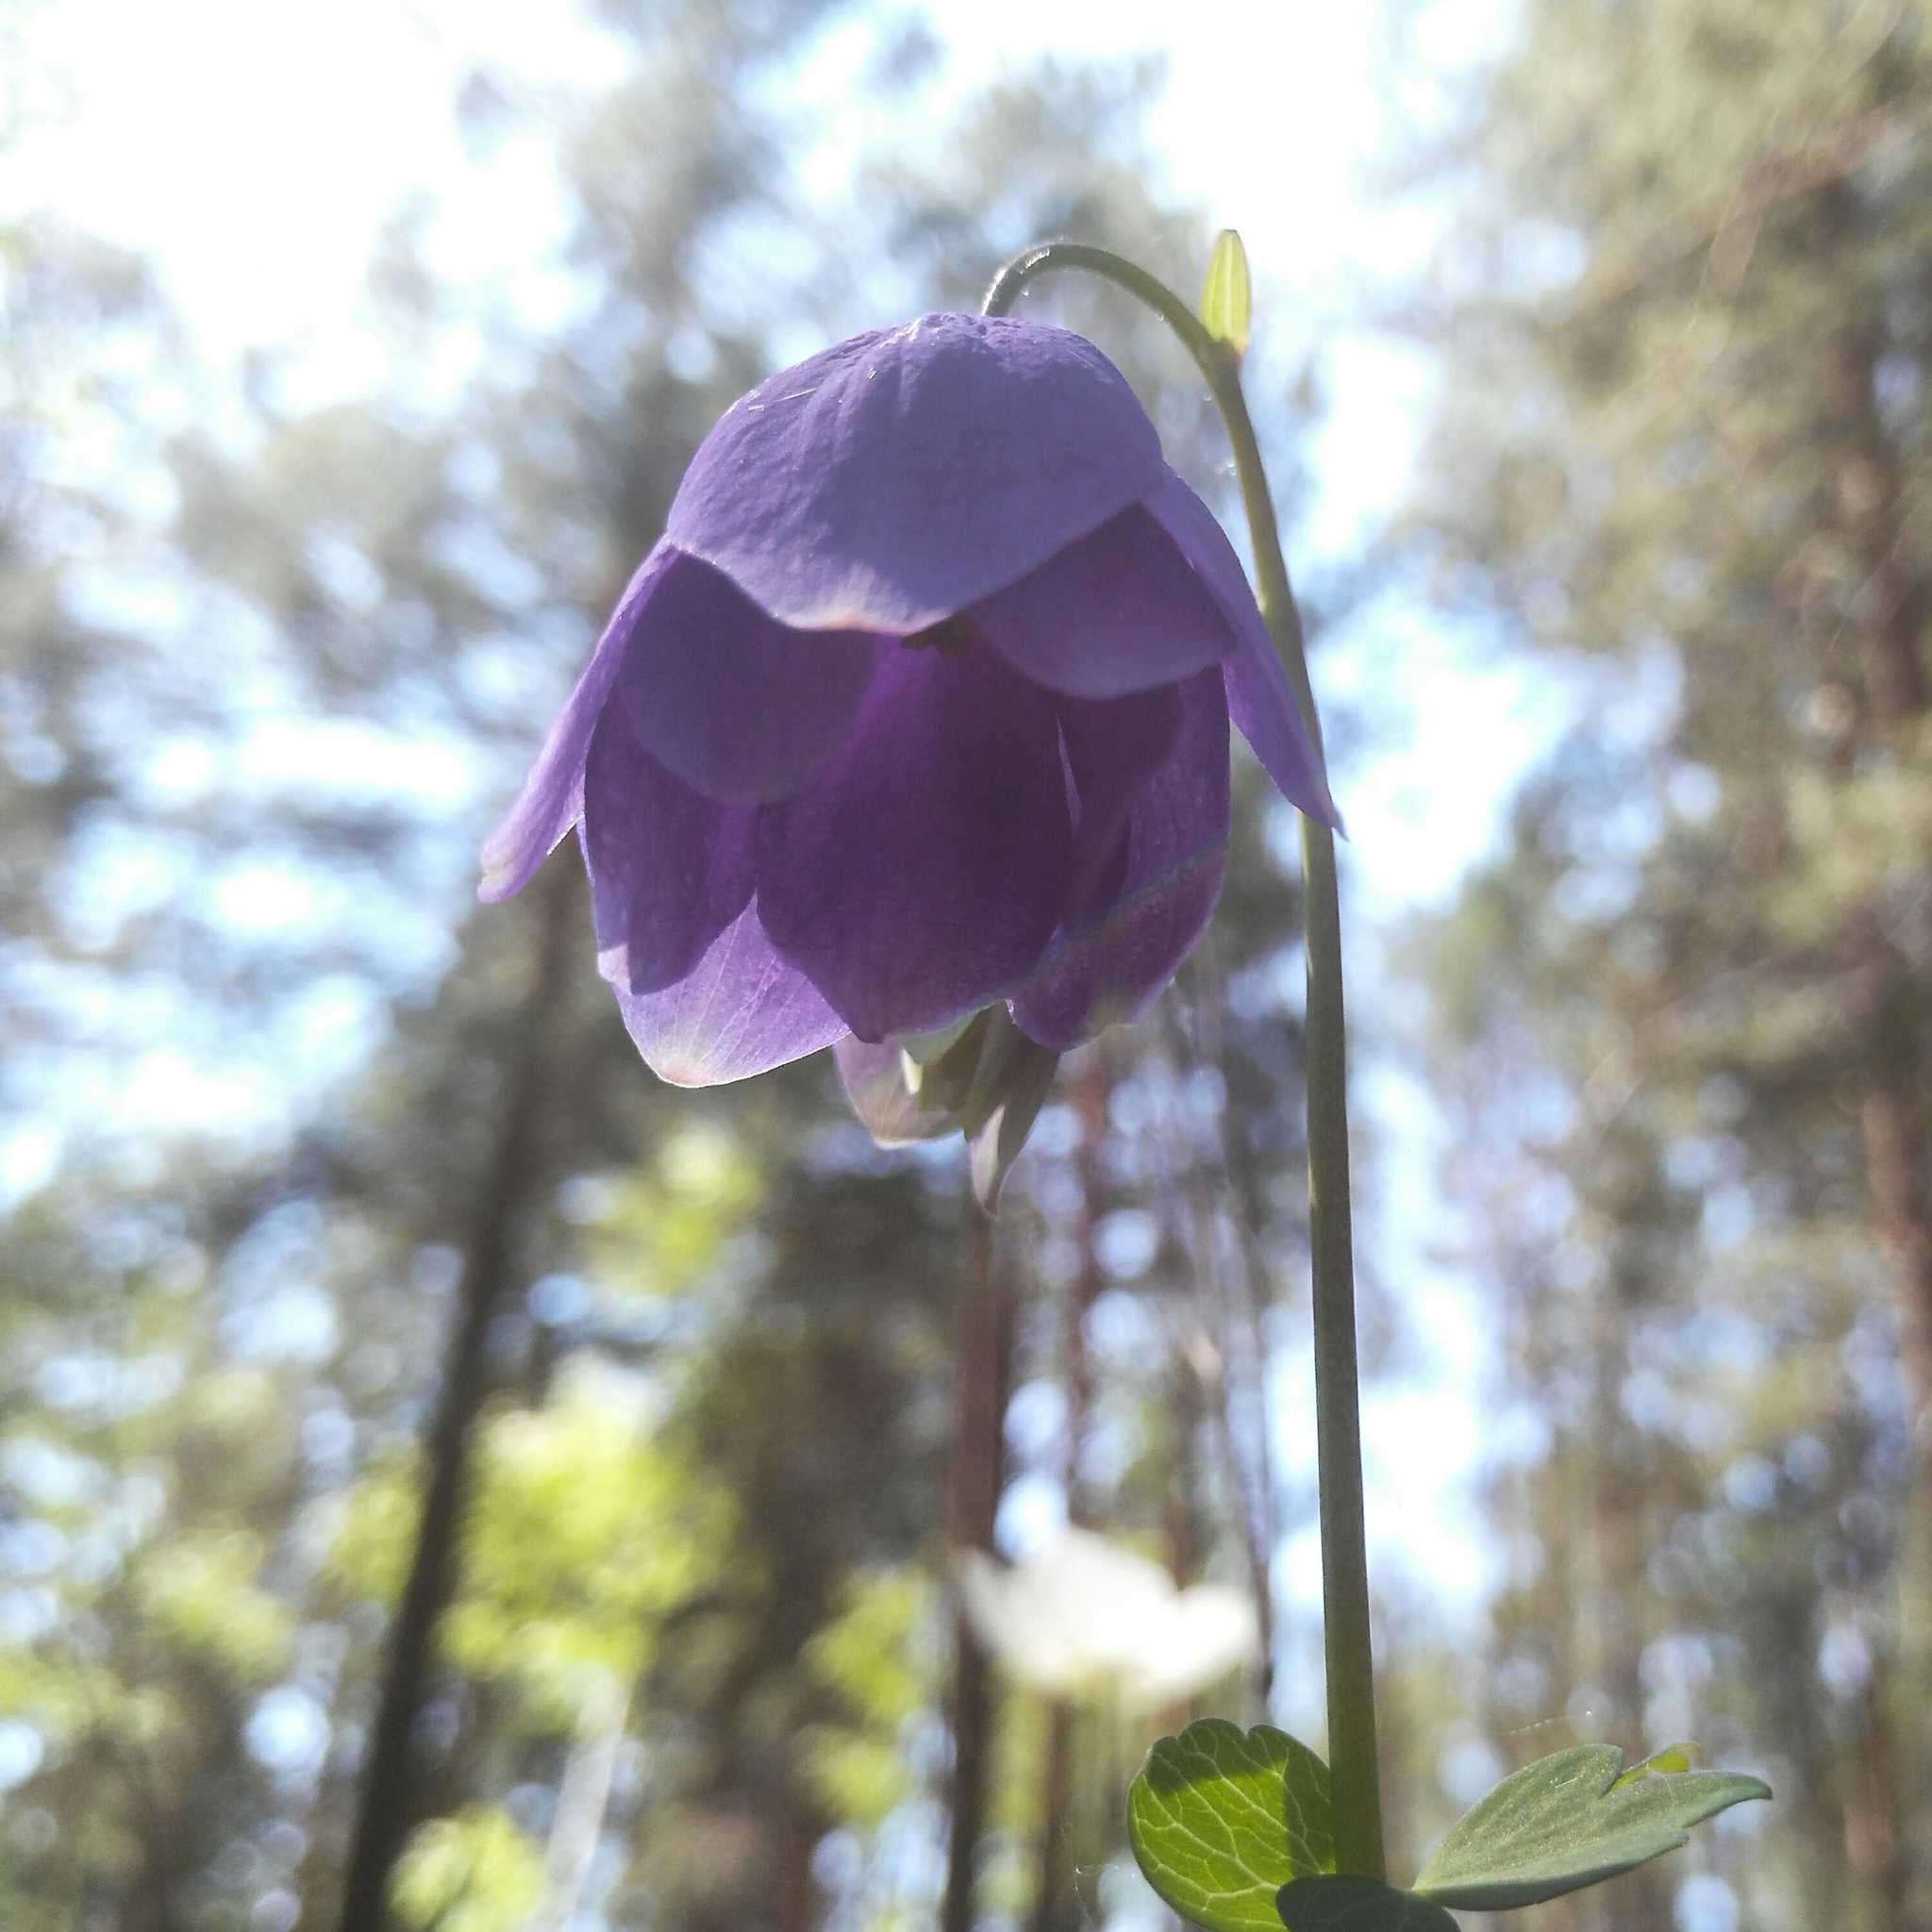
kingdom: Plantae
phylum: Tracheophyta
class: Magnoliopsida
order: Ranunculales
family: Ranunculaceae
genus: Aquilegia
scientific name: Aquilegia glandulosa
